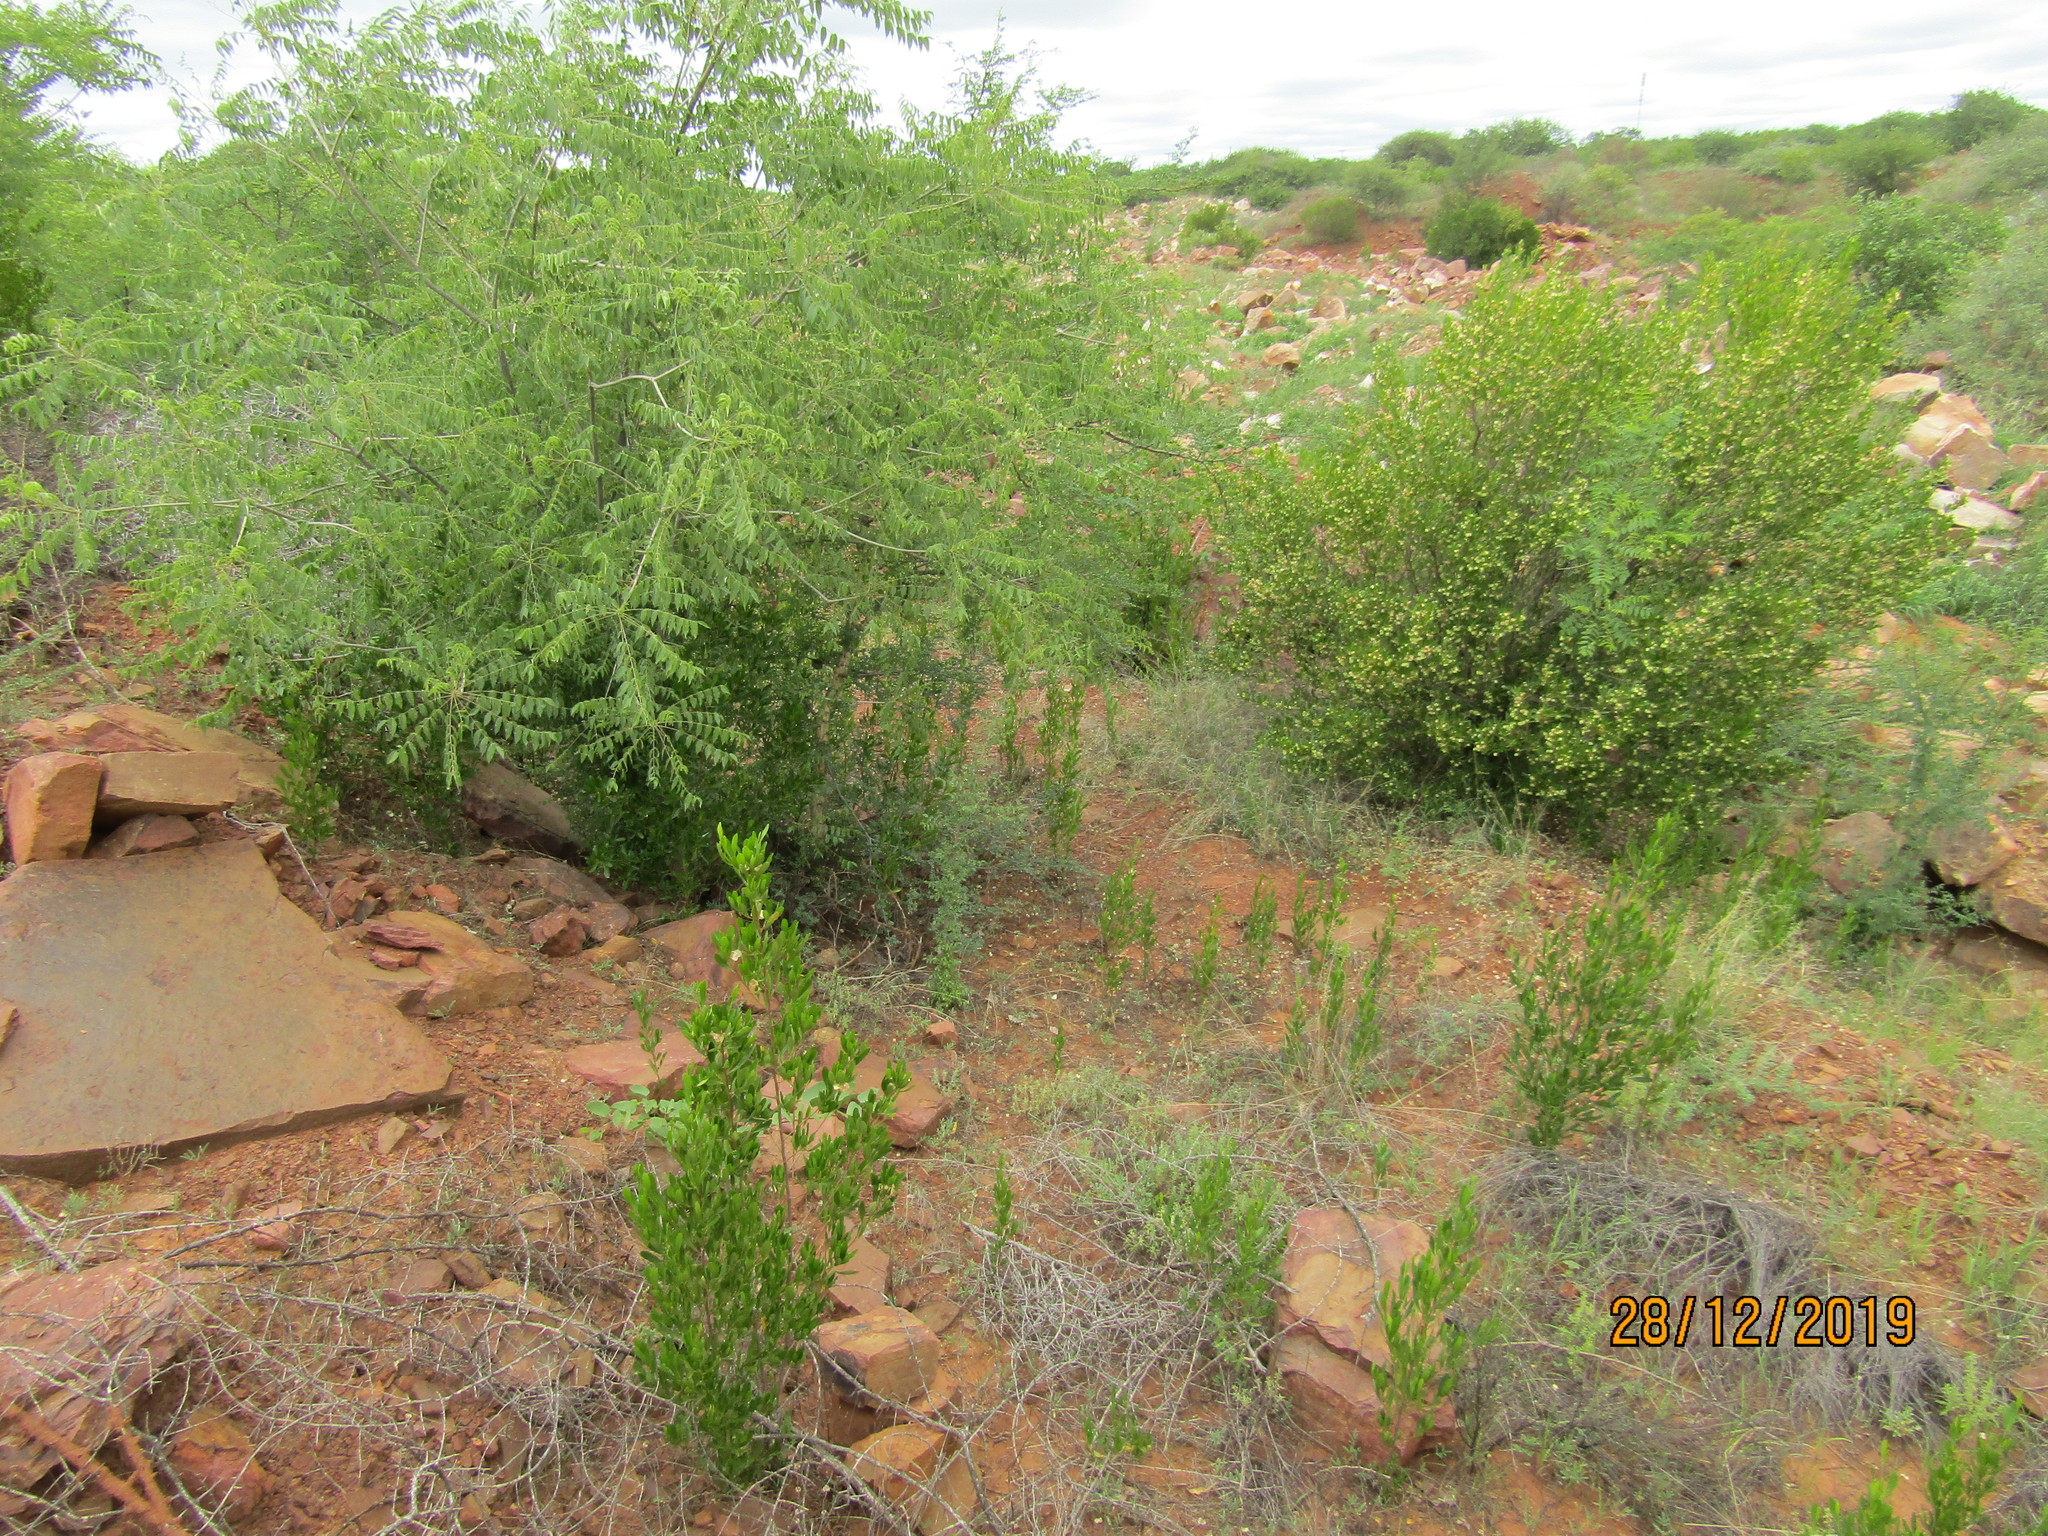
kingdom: Plantae
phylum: Tracheophyta
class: Magnoliopsida
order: Sapindales
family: Sapindaceae
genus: Dodonaea
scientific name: Dodonaea viscosa
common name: Hopbush
